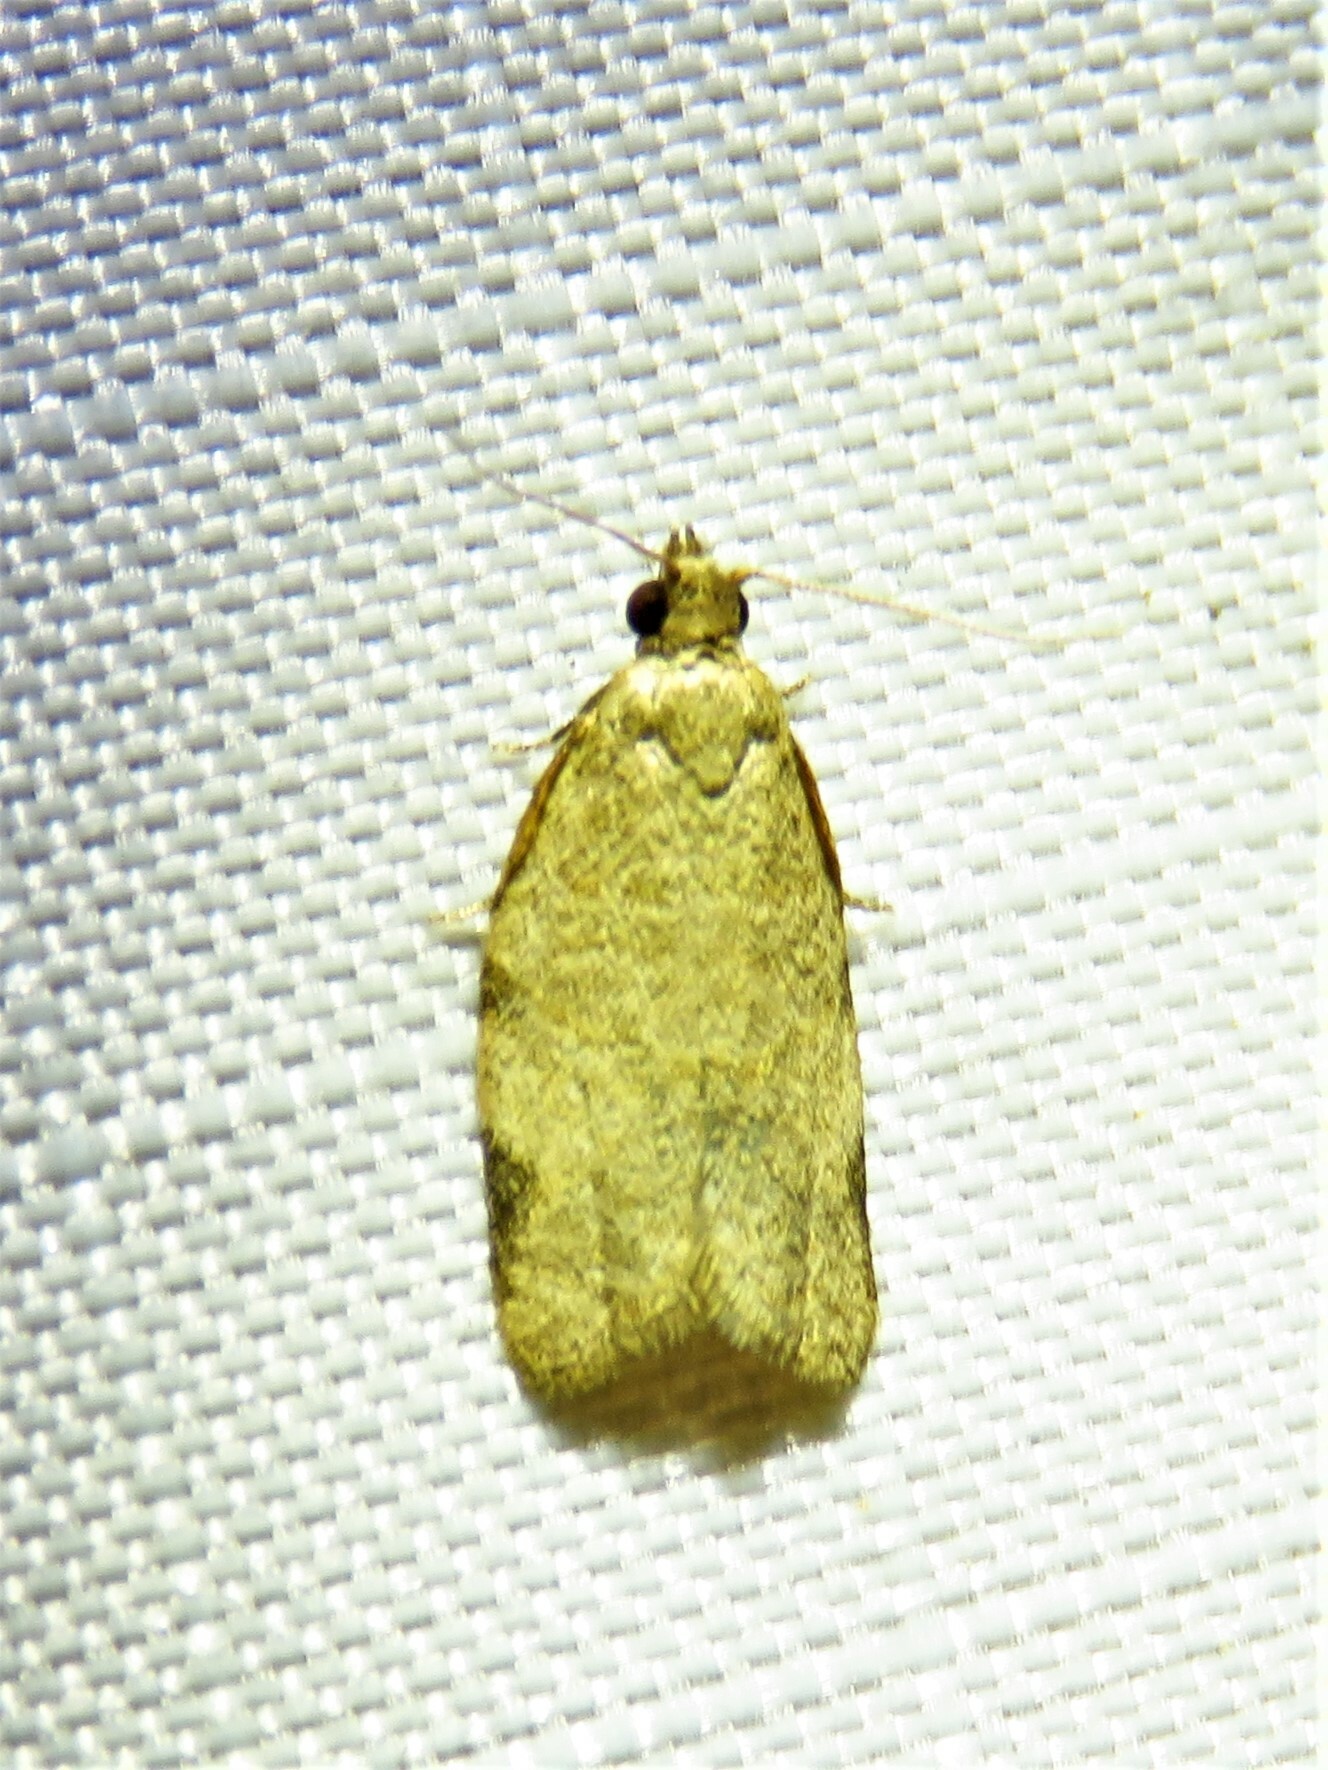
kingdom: Animalia
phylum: Arthropoda
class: Insecta
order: Lepidoptera
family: Tortricidae
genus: Clepsis
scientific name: Clepsis virescana
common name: Greenish apple moth
